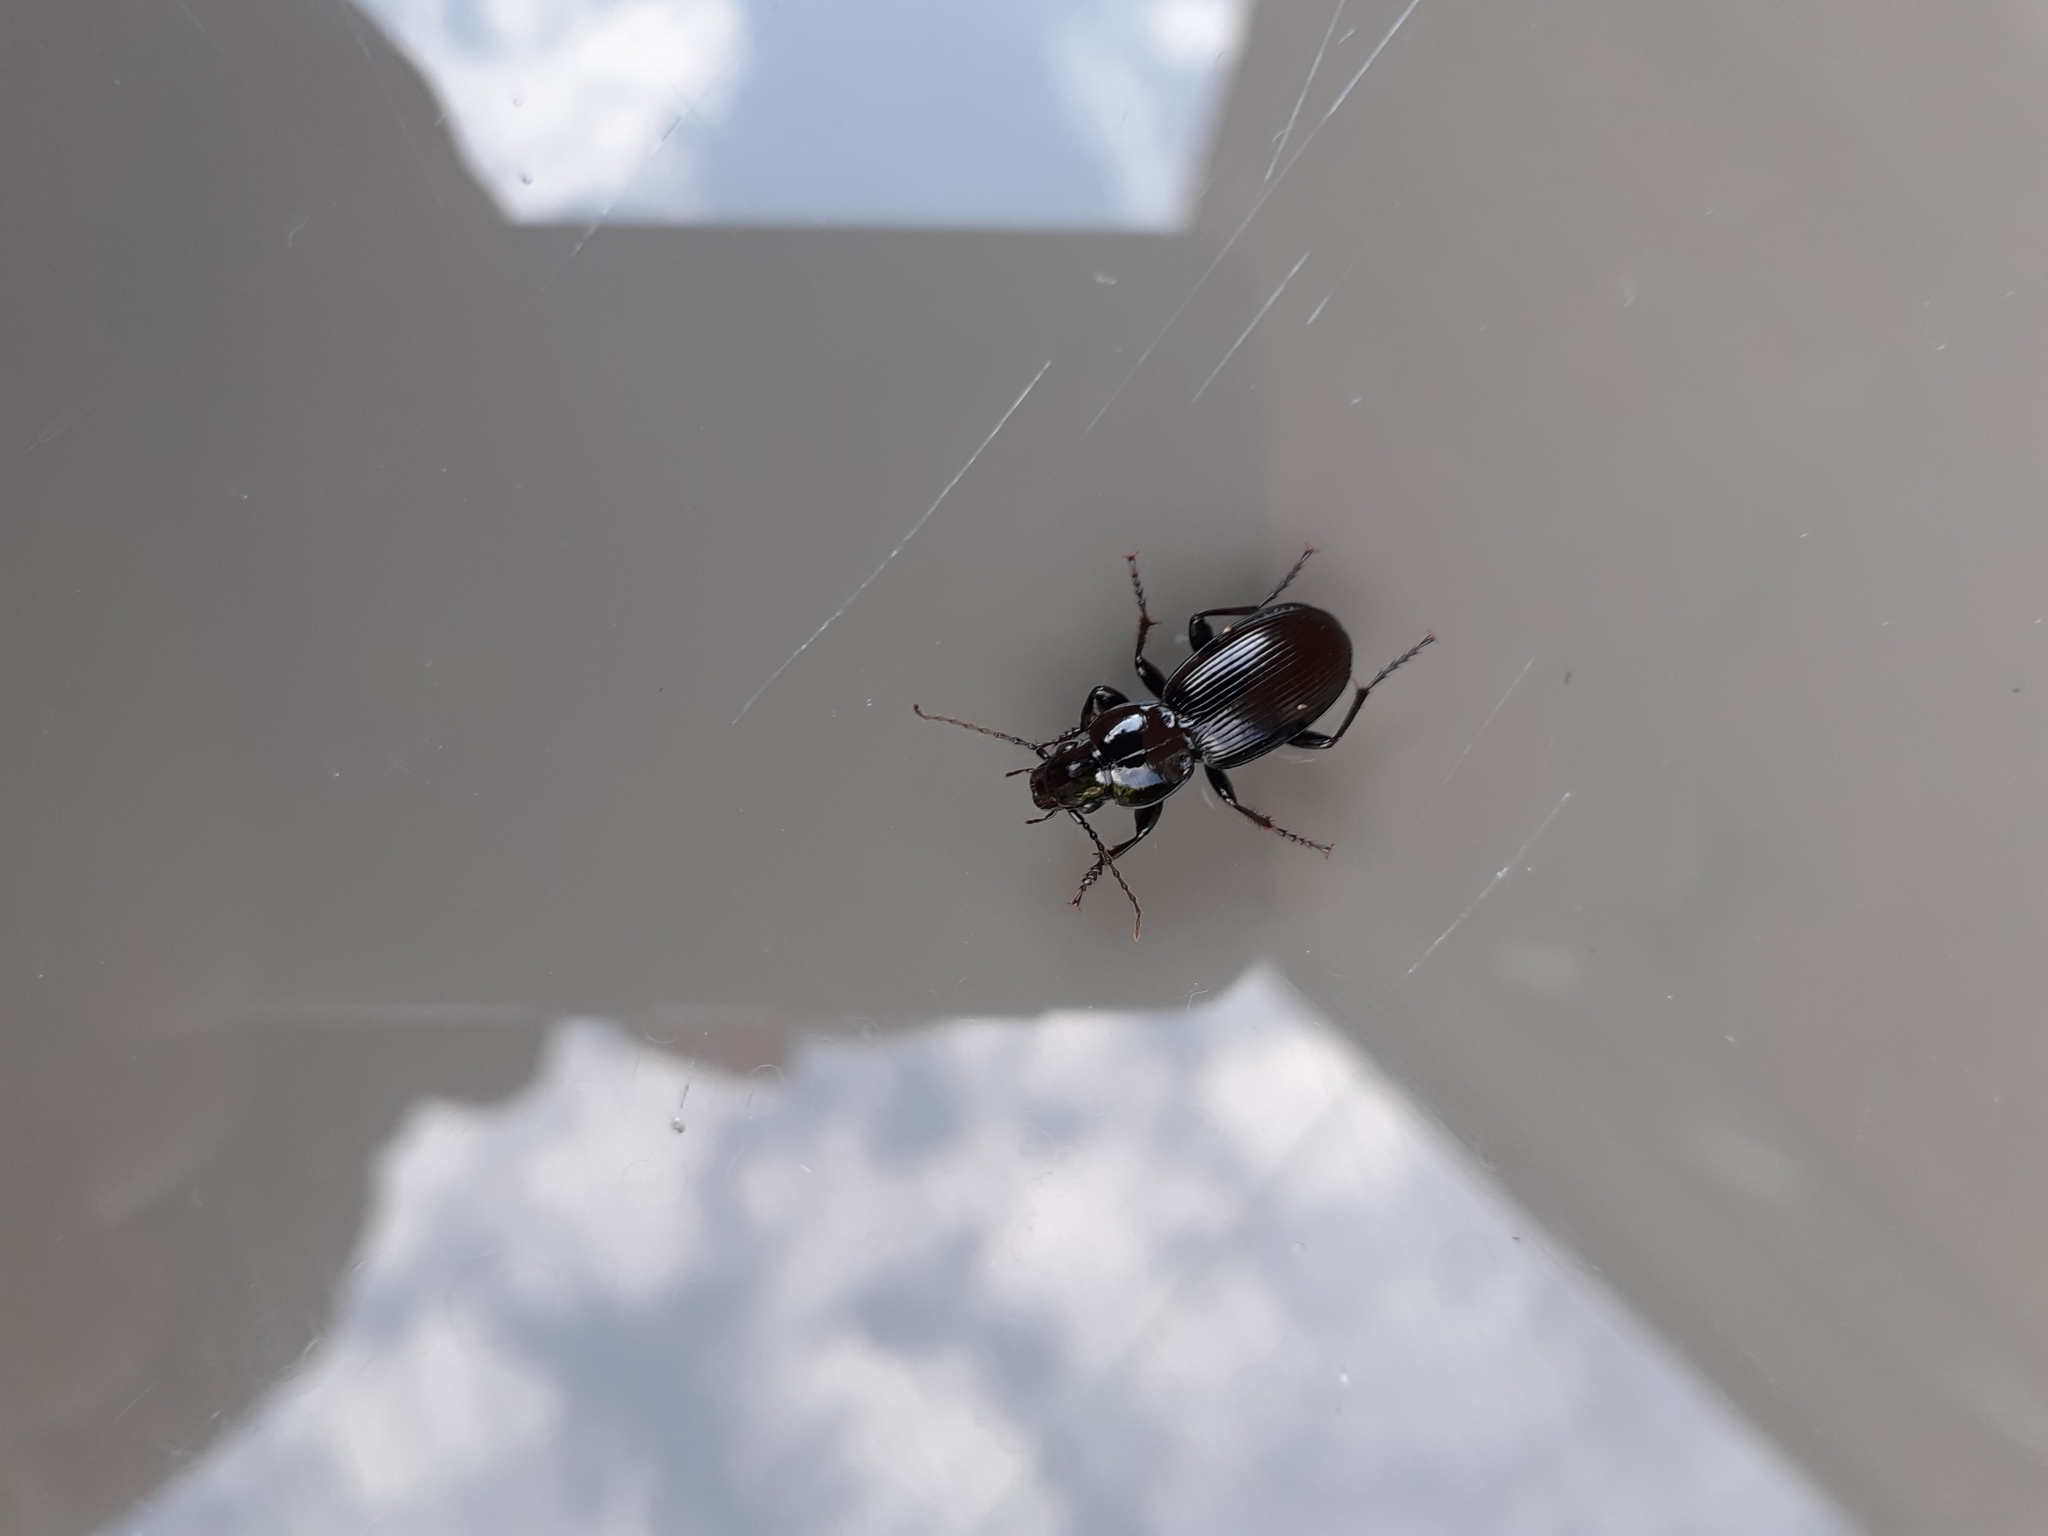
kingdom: Animalia
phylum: Arthropoda
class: Insecta
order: Coleoptera
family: Carabidae
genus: Pterostichus
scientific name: Pterostichus madidus
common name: Black clock
